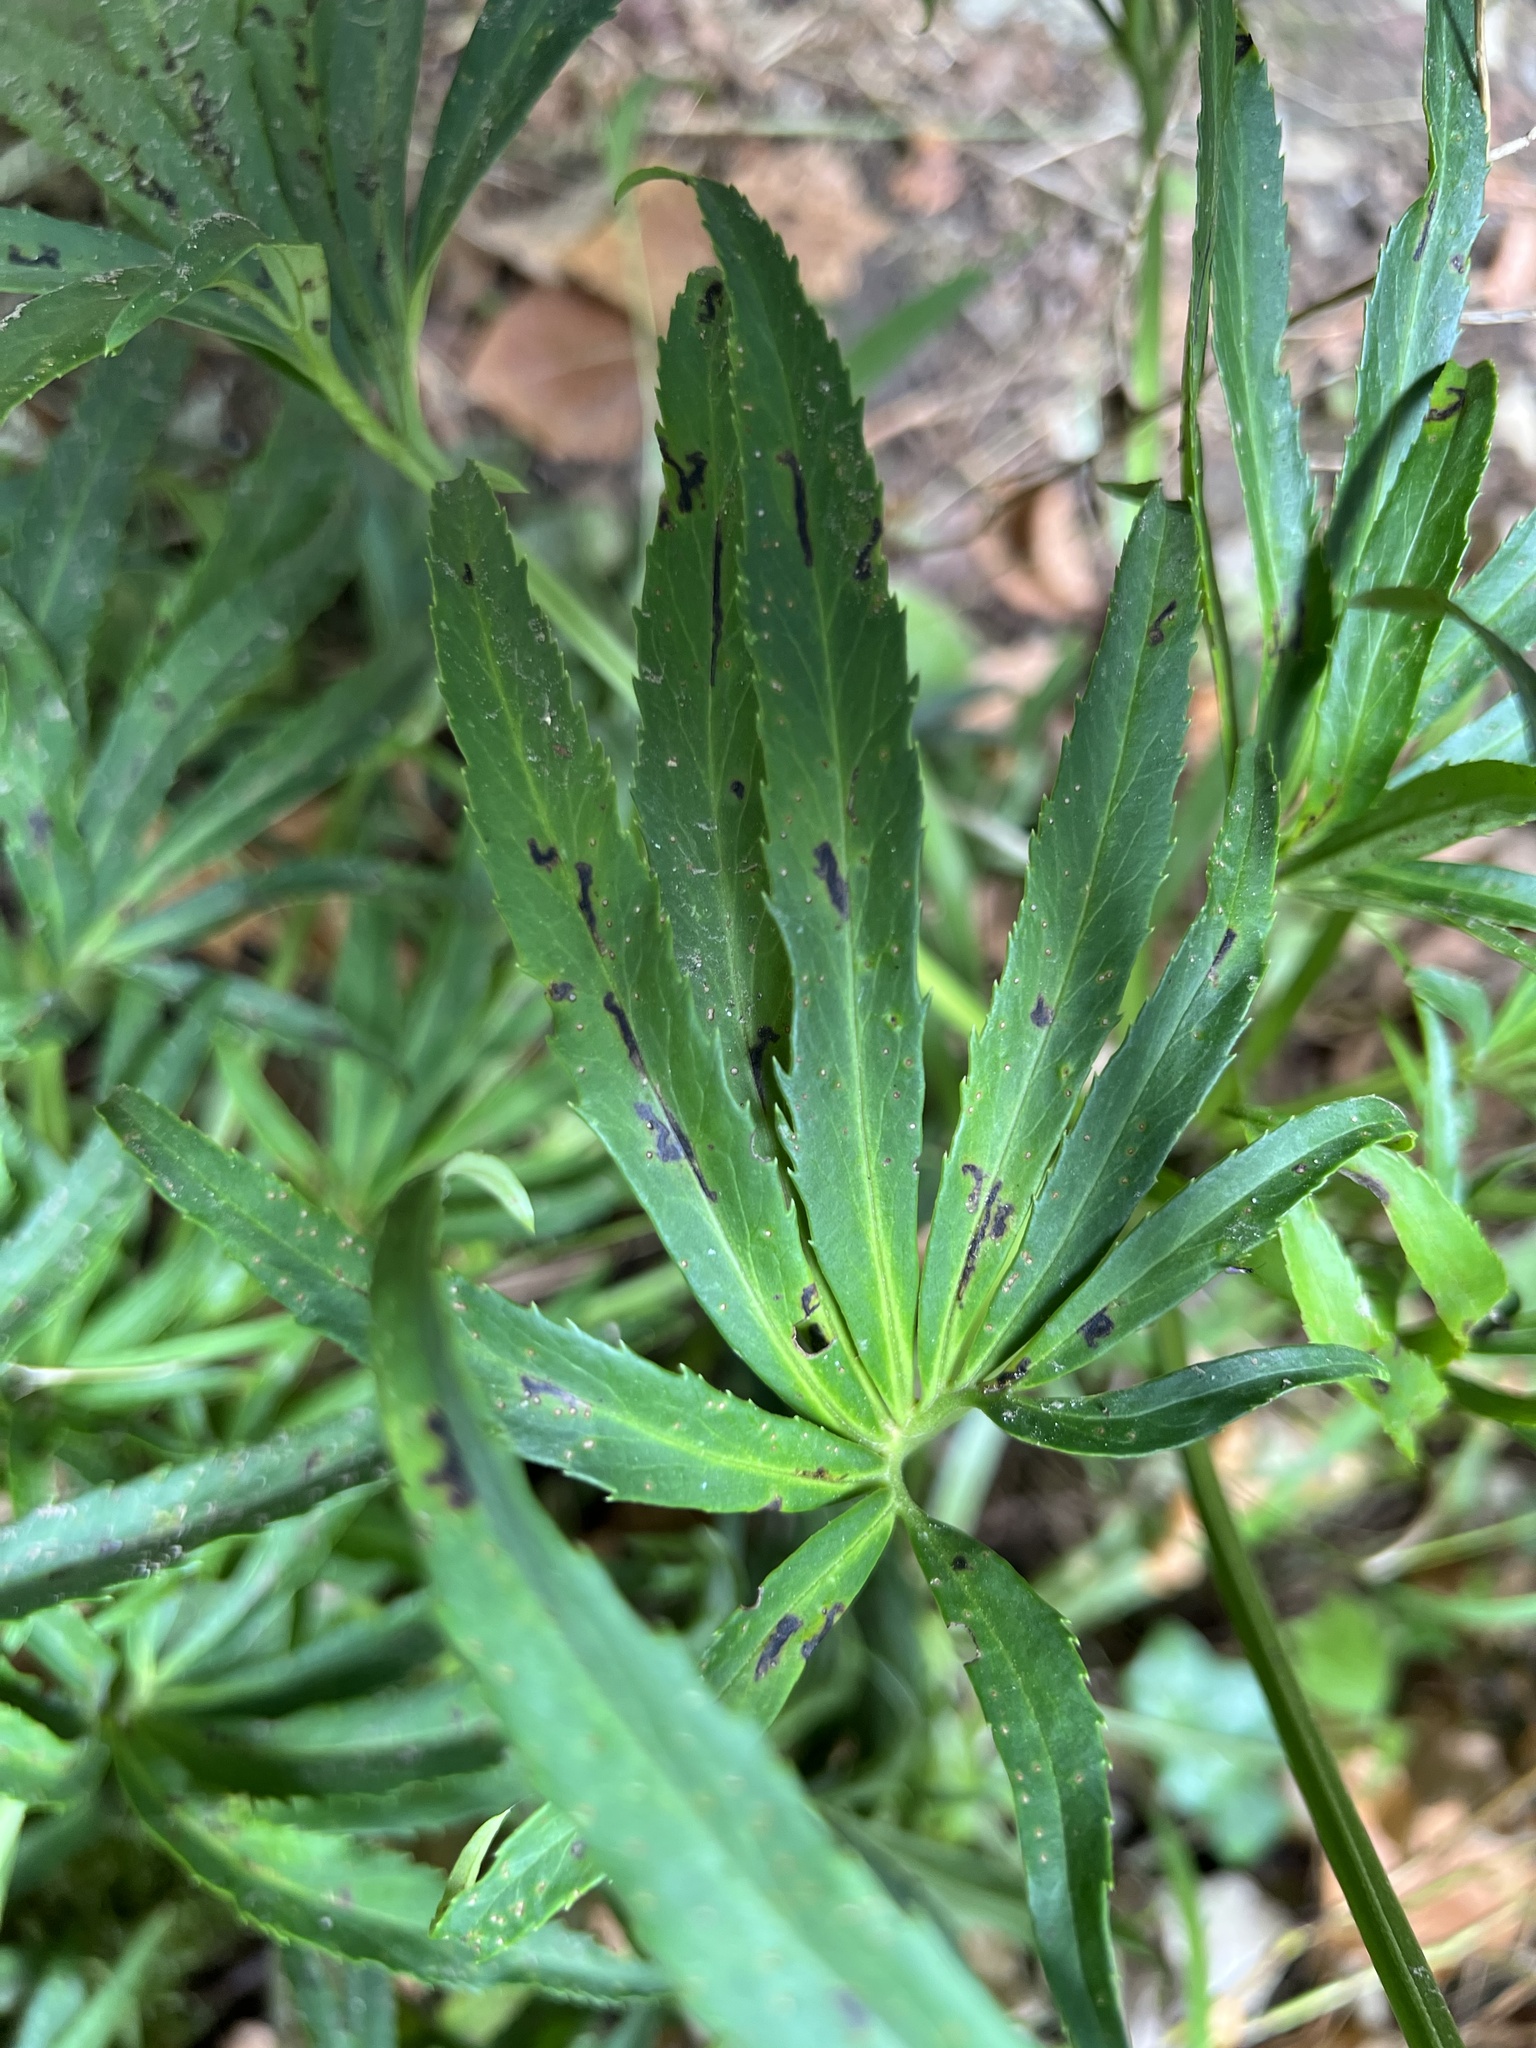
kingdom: Plantae
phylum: Tracheophyta
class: Magnoliopsida
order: Ranunculales
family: Ranunculaceae
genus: Helleborus
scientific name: Helleborus foetidus
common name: Stinking hellebore
